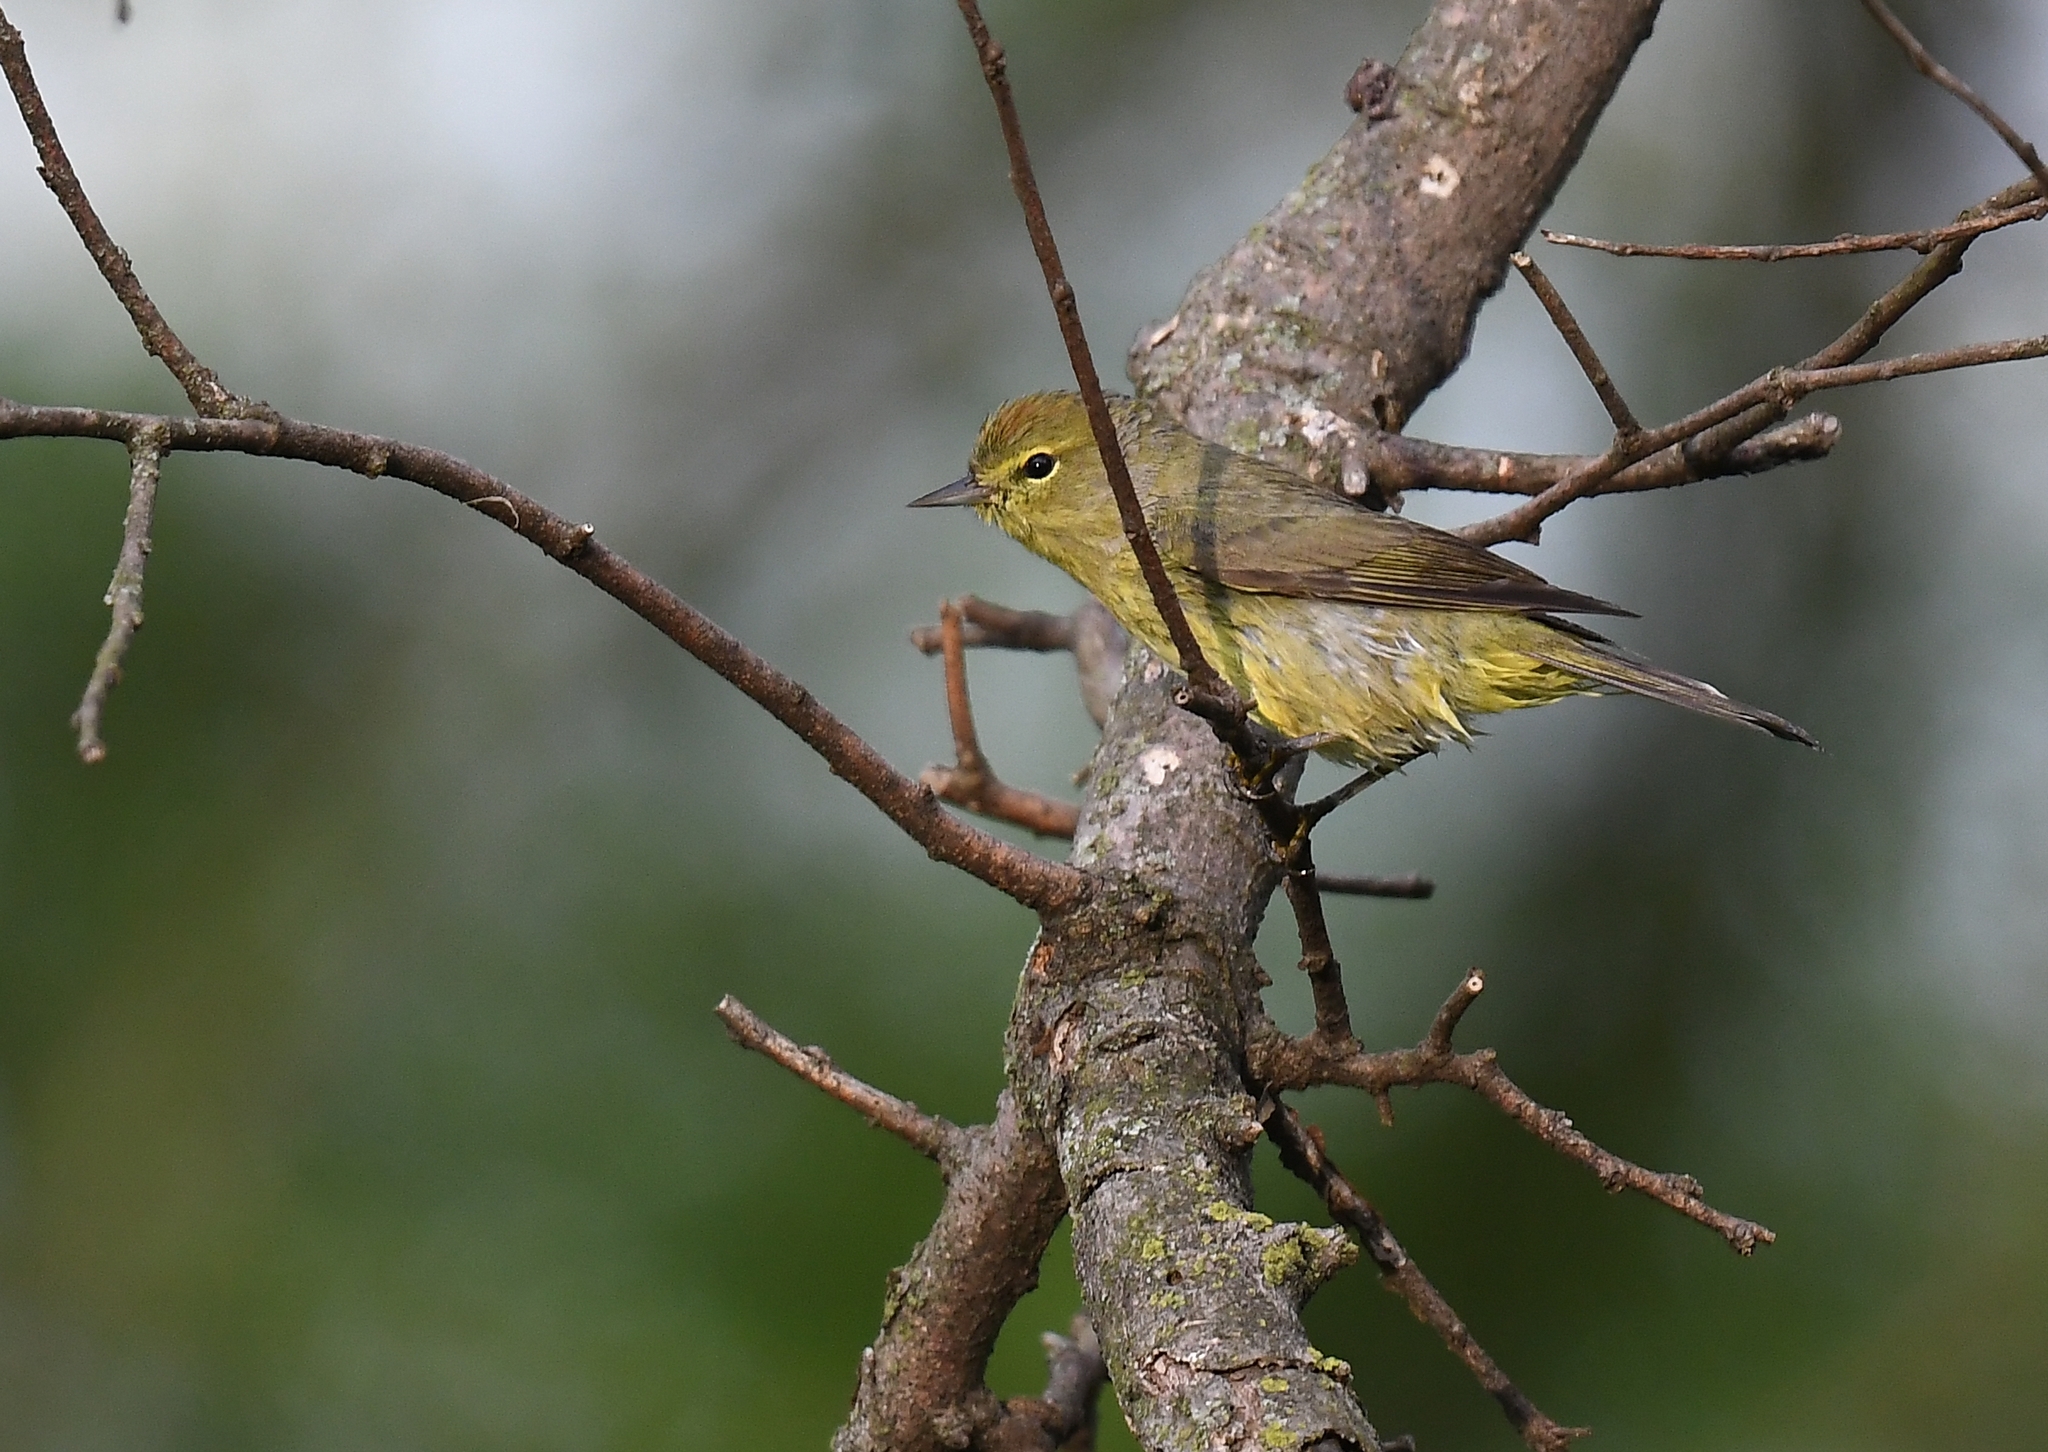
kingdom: Animalia
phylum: Chordata
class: Aves
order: Passeriformes
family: Parulidae
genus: Leiothlypis
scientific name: Leiothlypis celata
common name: Orange-crowned warbler
